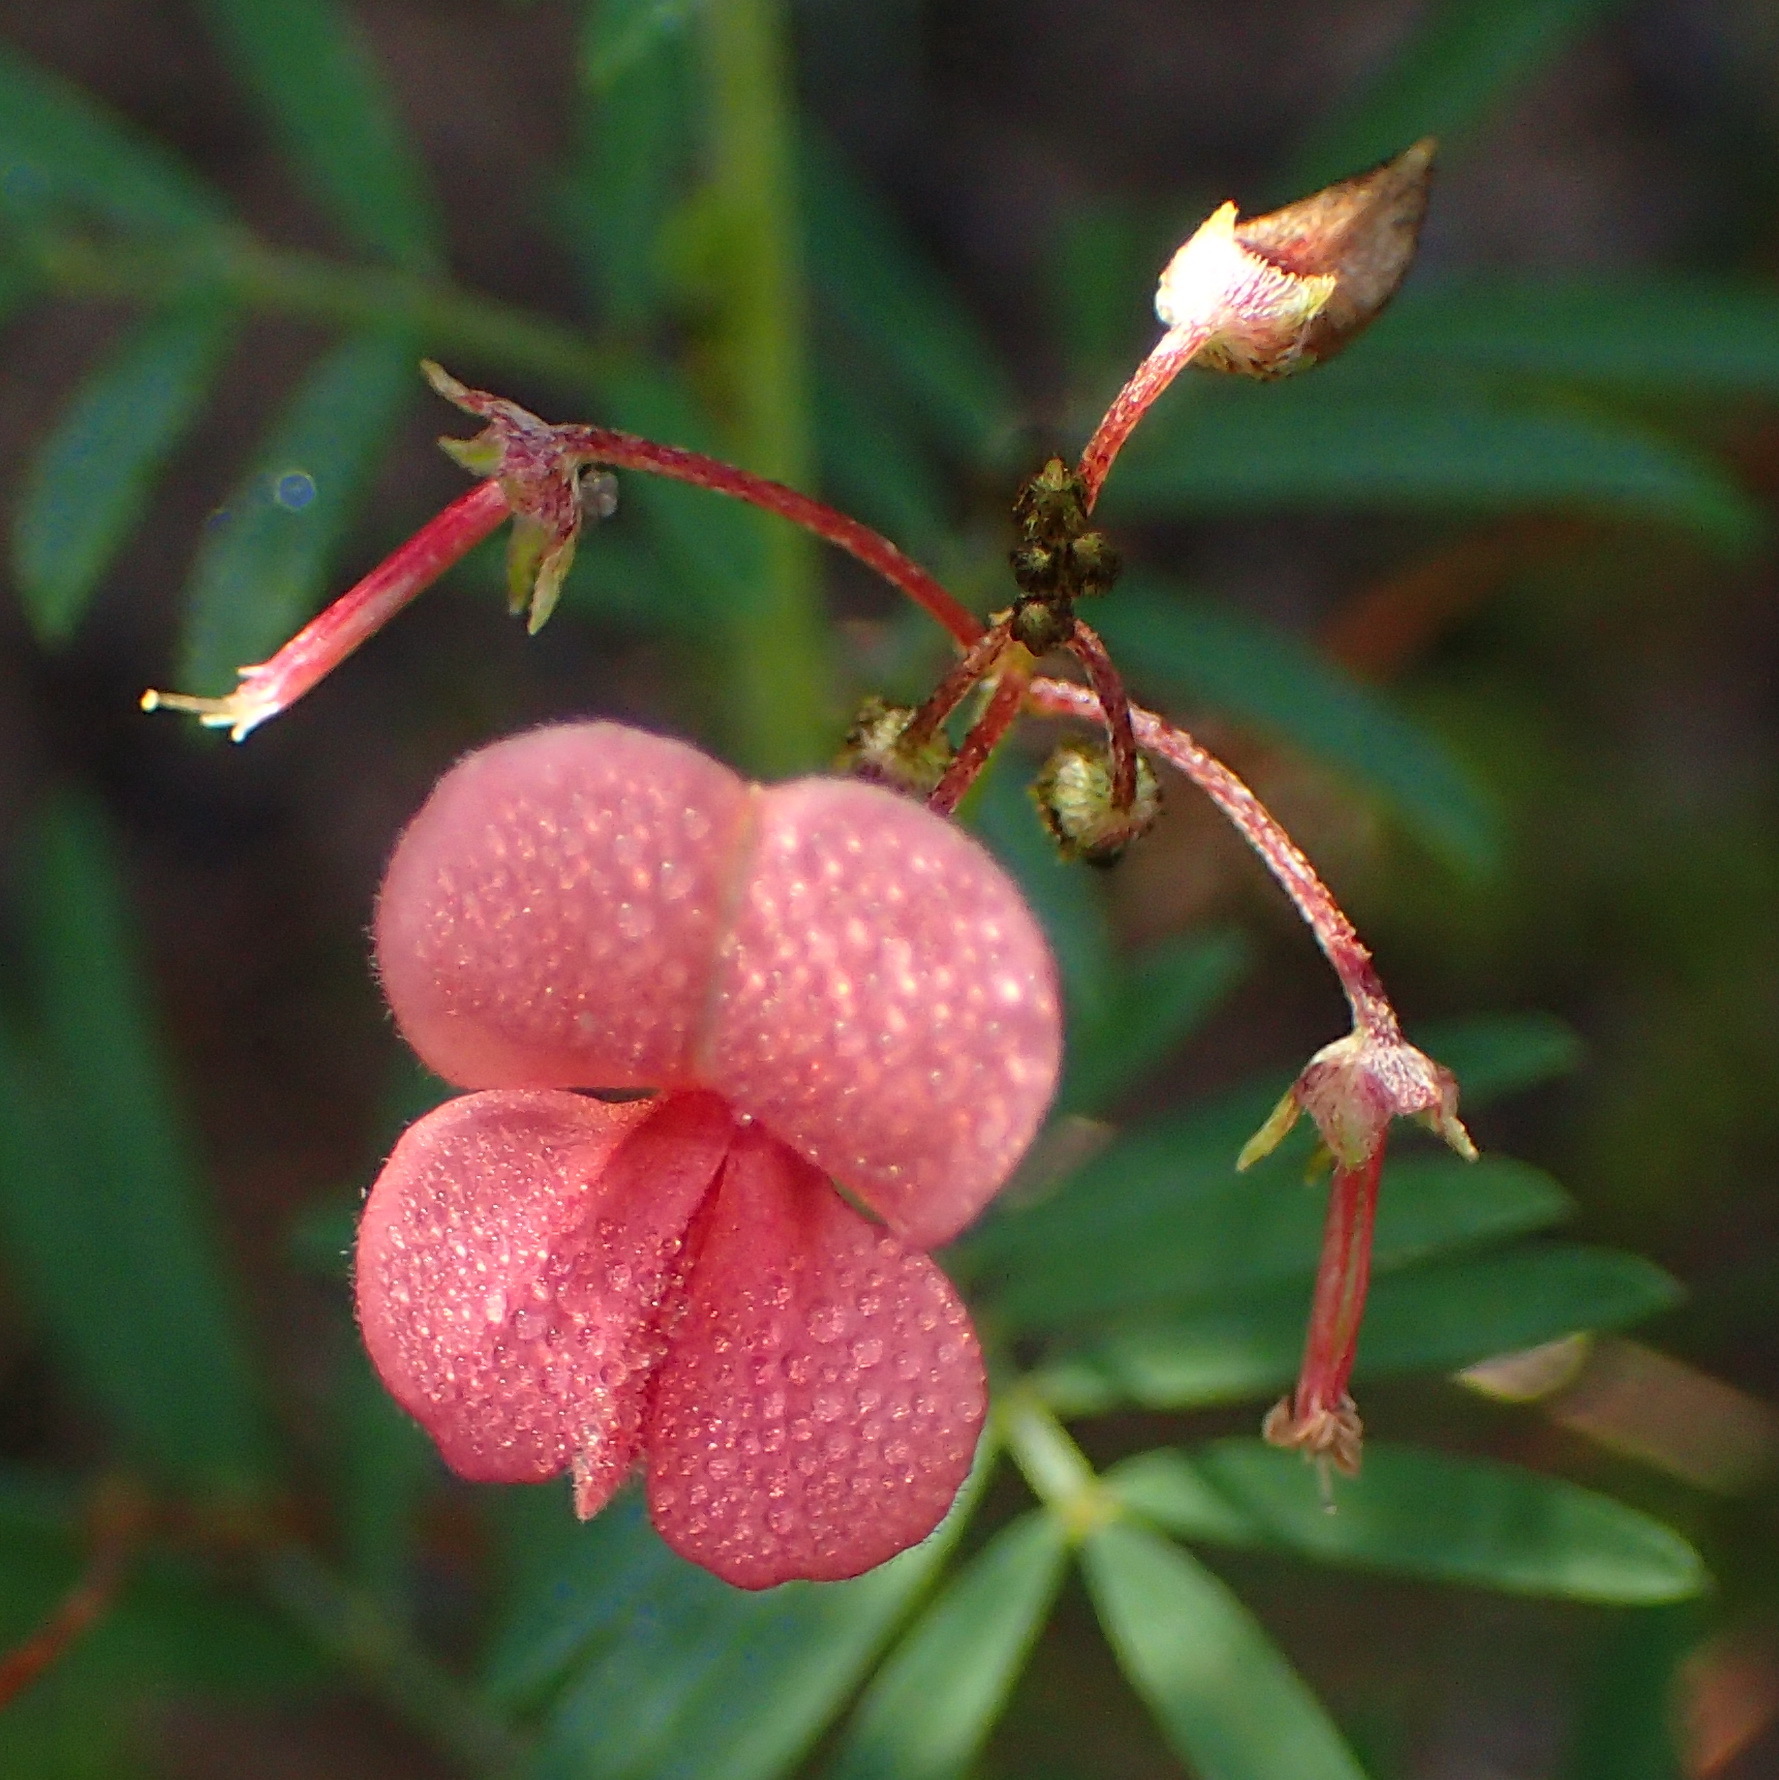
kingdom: Plantae
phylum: Tracheophyta
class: Magnoliopsida
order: Fabales
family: Fabaceae
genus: Indigofera
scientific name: Indigofera verrucosa
